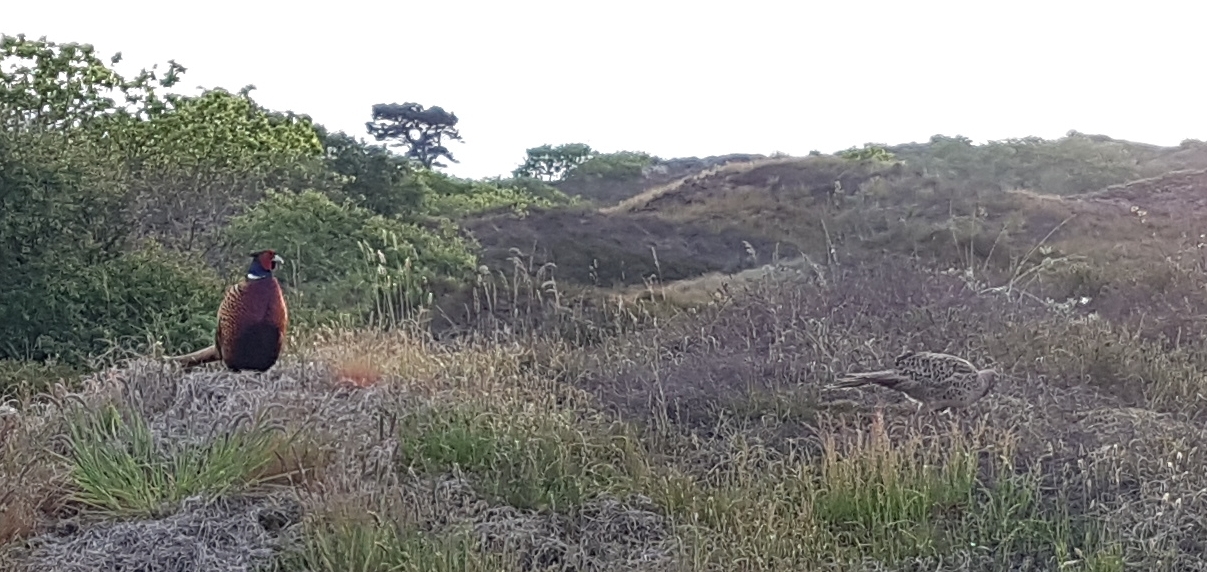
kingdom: Animalia
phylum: Chordata
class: Aves
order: Galliformes
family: Phasianidae
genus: Phasianus
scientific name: Phasianus colchicus
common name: Common pheasant
